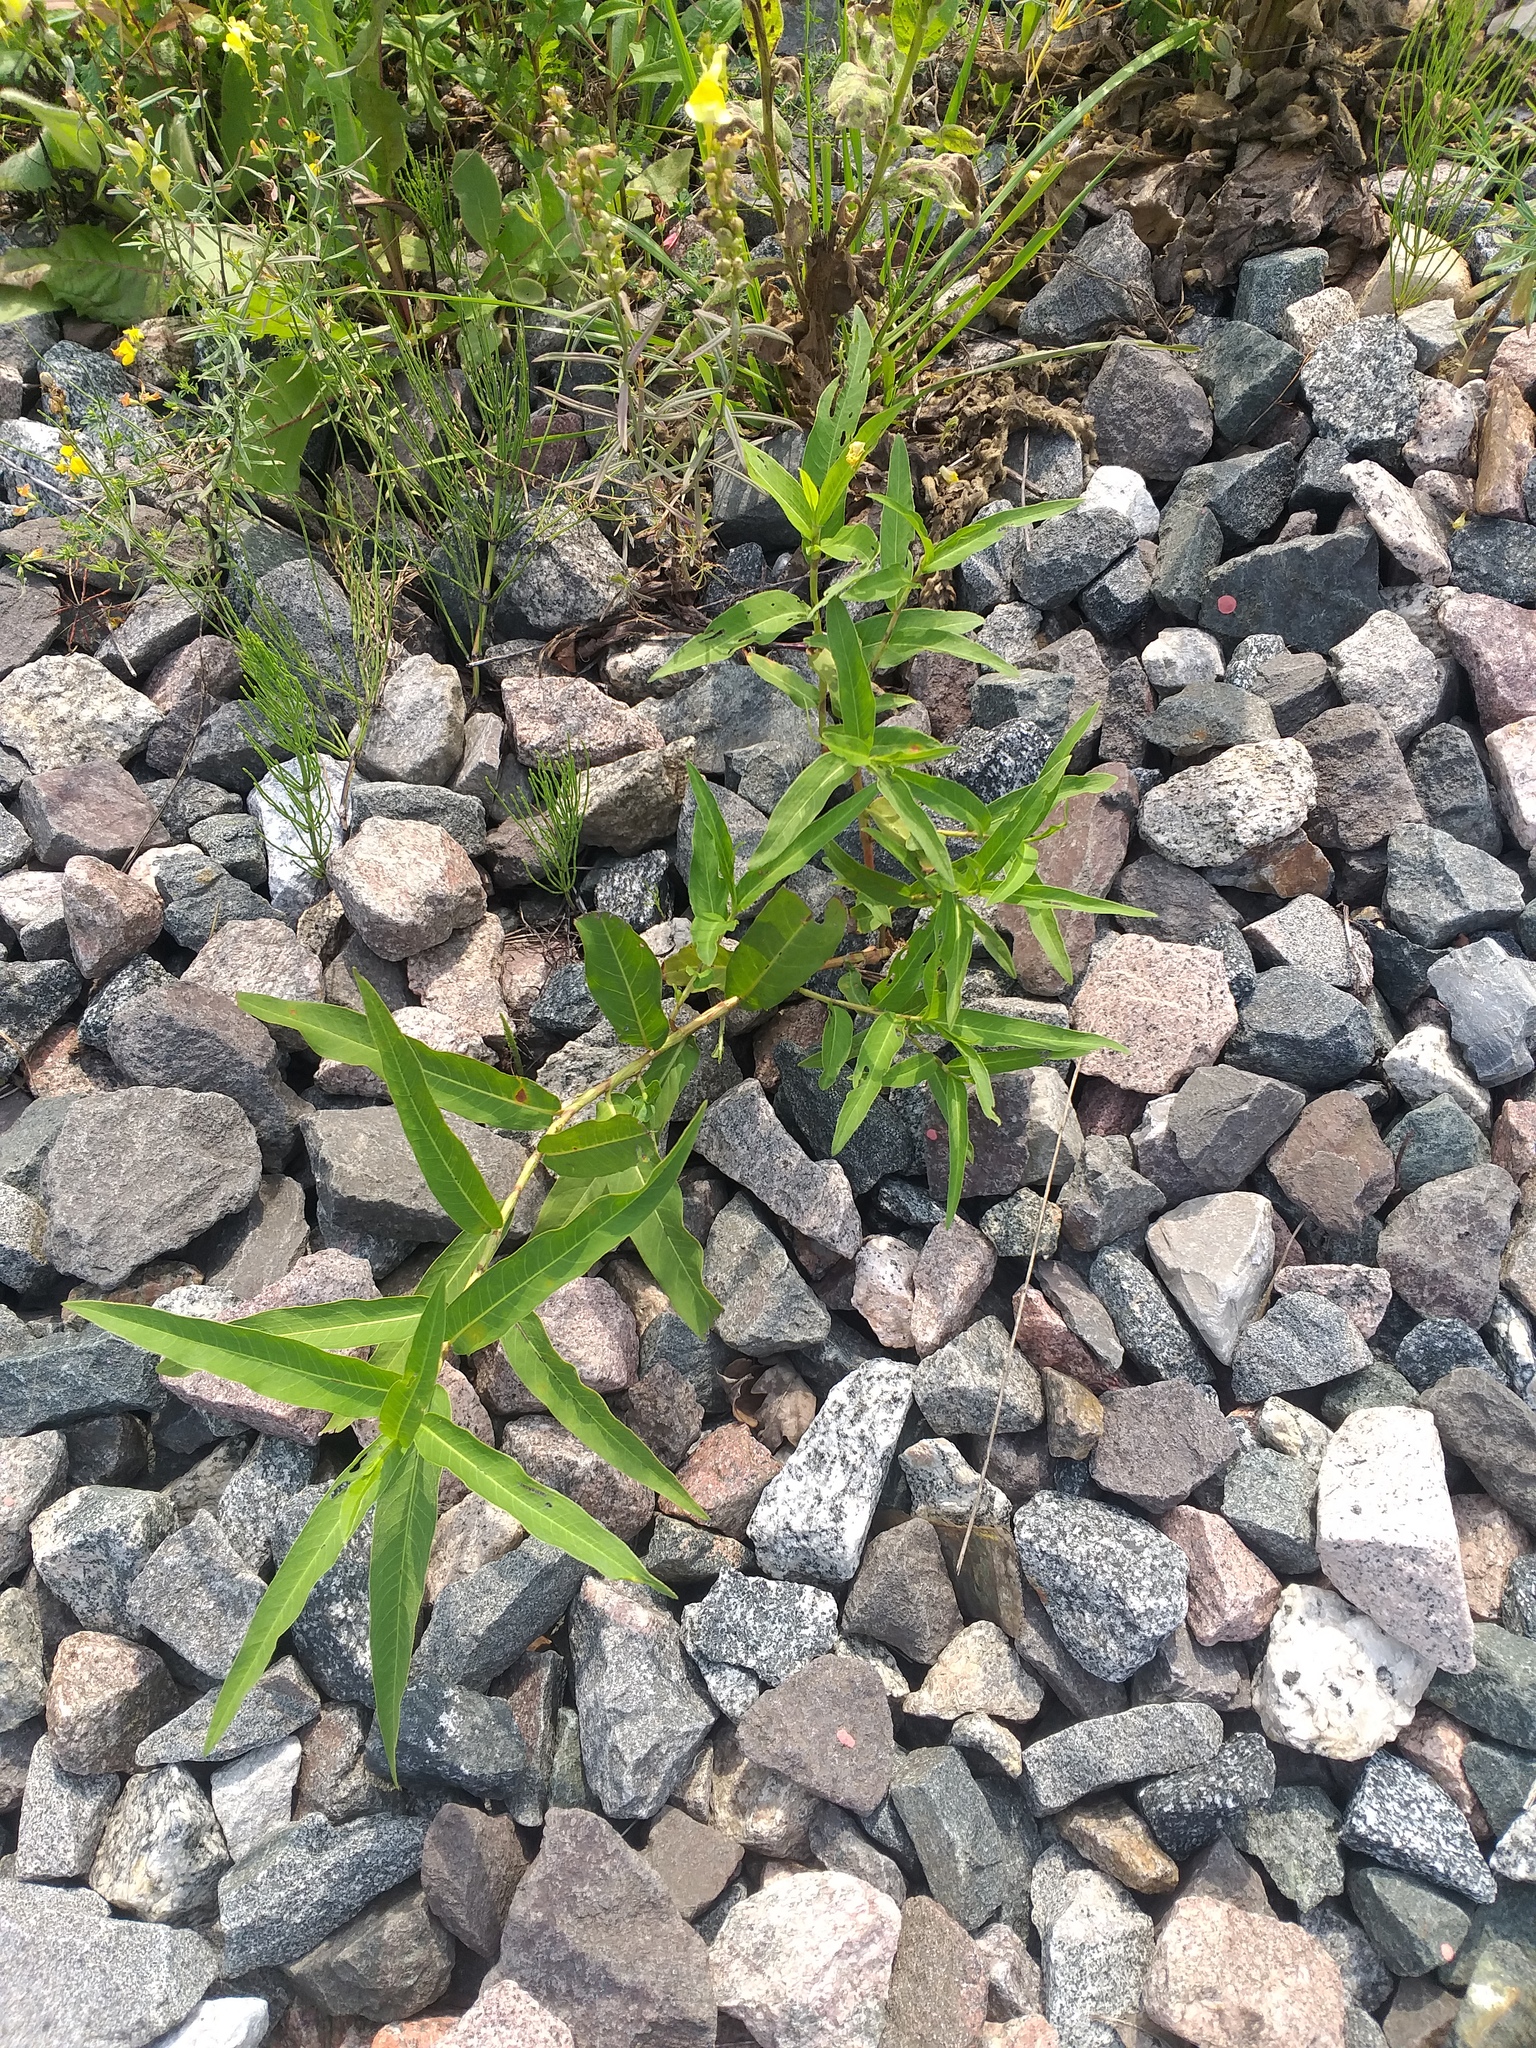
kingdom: Plantae
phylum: Tracheophyta
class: Magnoliopsida
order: Caryophyllales
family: Polygonaceae
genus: Persicaria
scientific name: Persicaria amphibia
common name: Amphibious bistort
